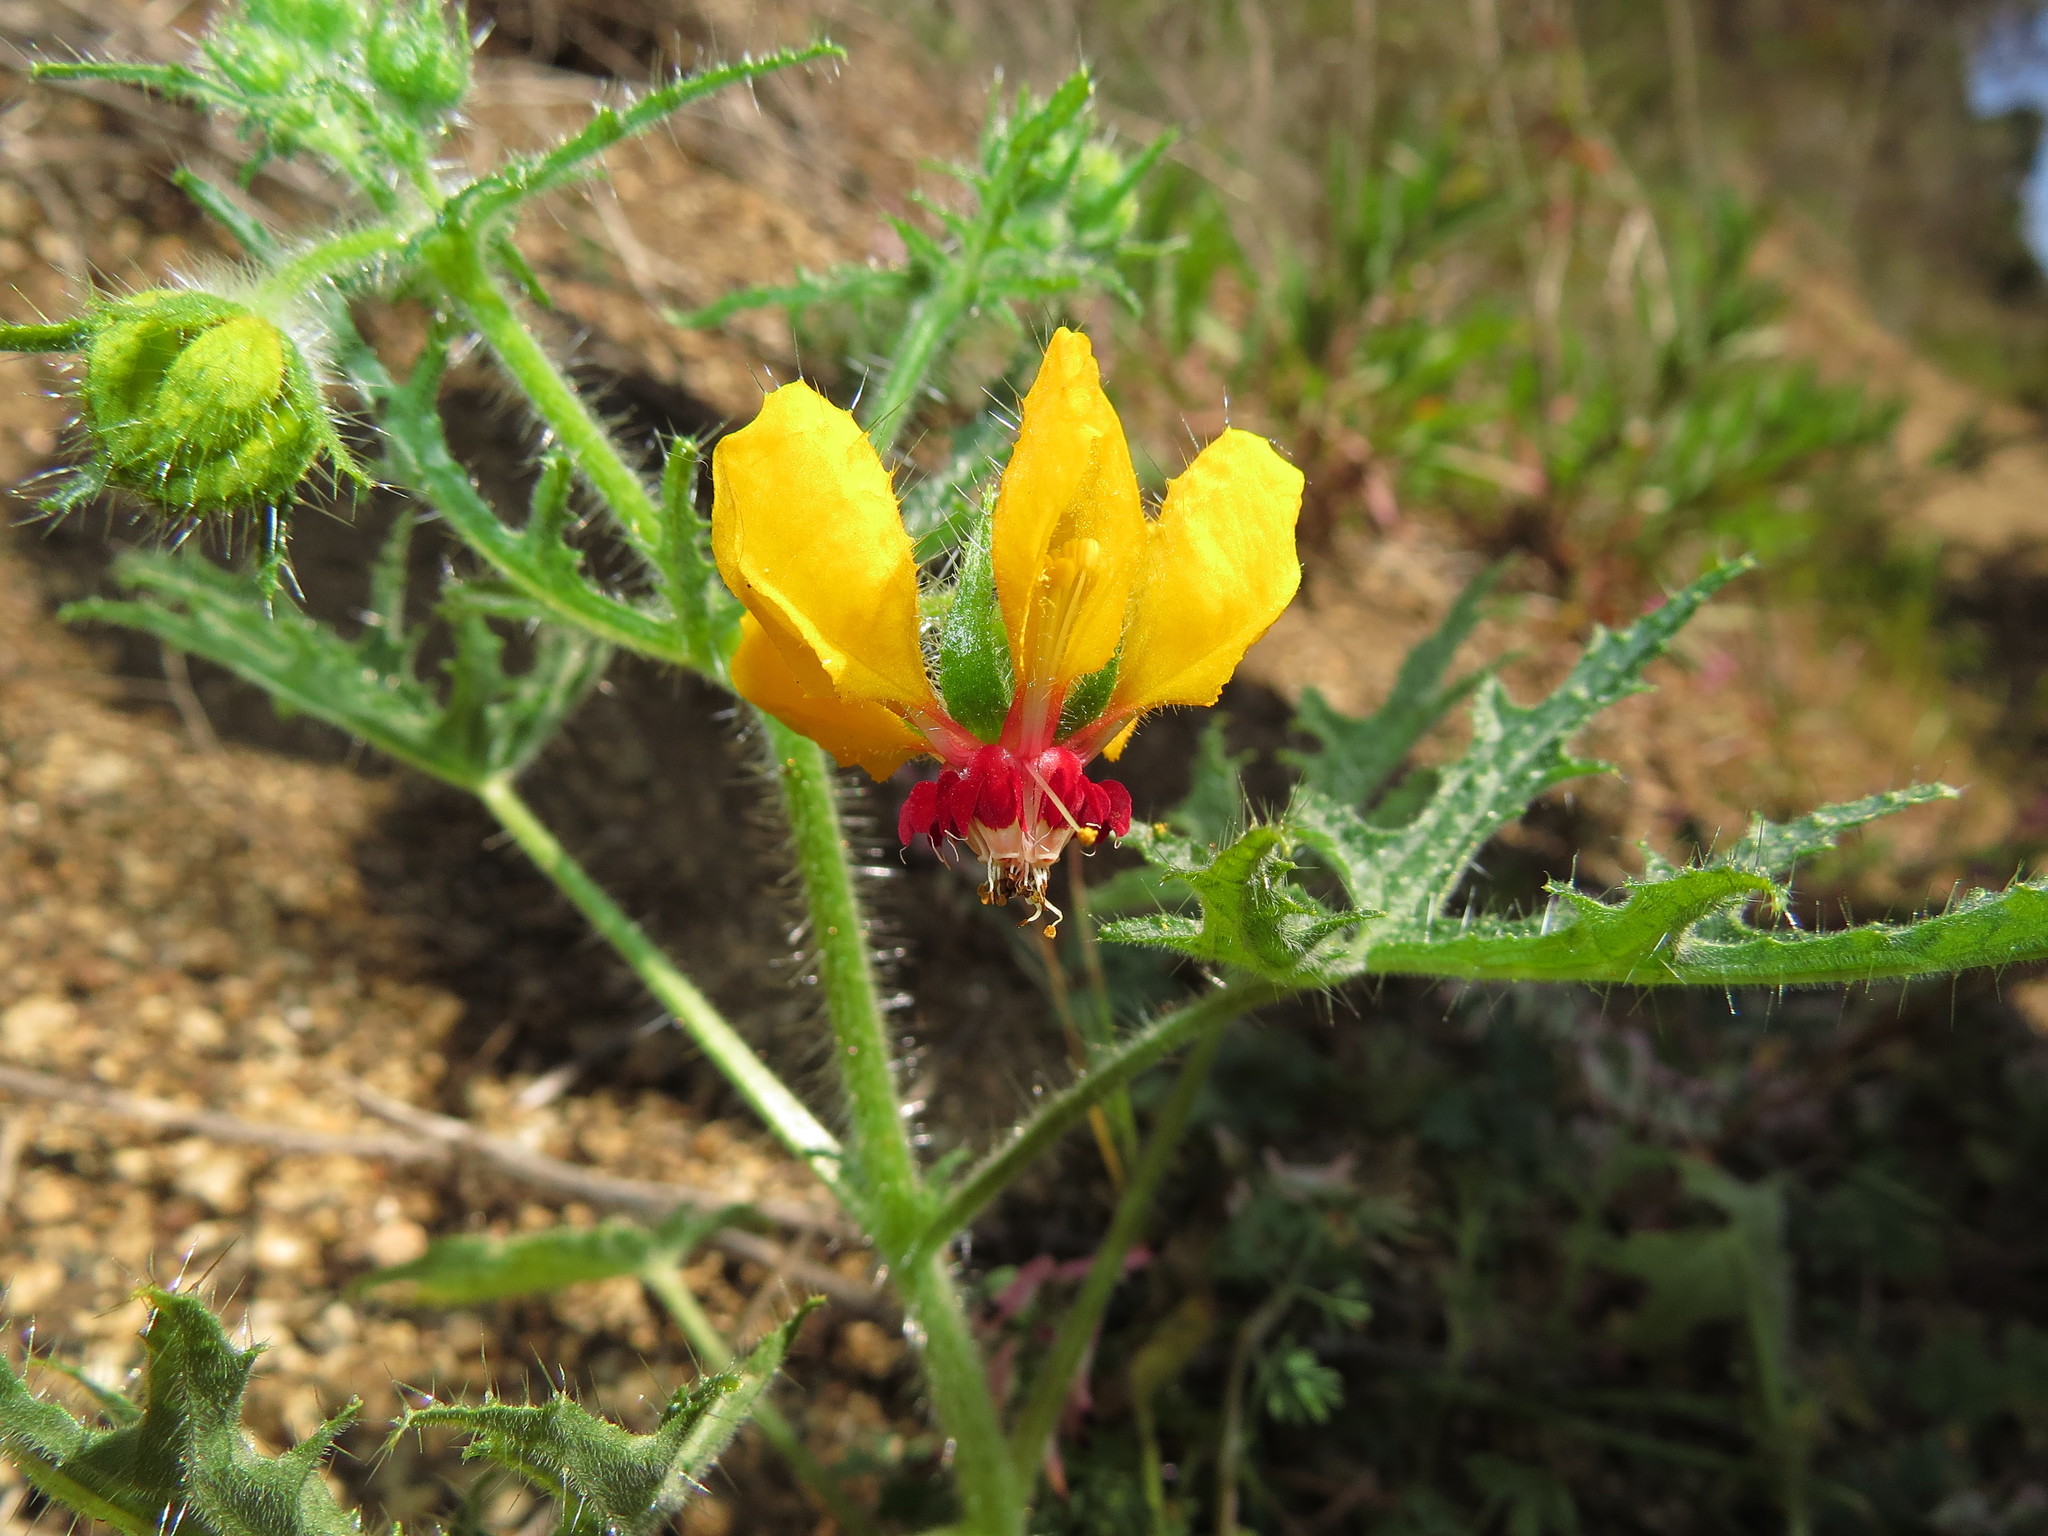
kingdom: Plantae
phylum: Tracheophyta
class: Magnoliopsida
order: Cornales
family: Loasaceae
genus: Loasa
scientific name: Loasa tricolor
